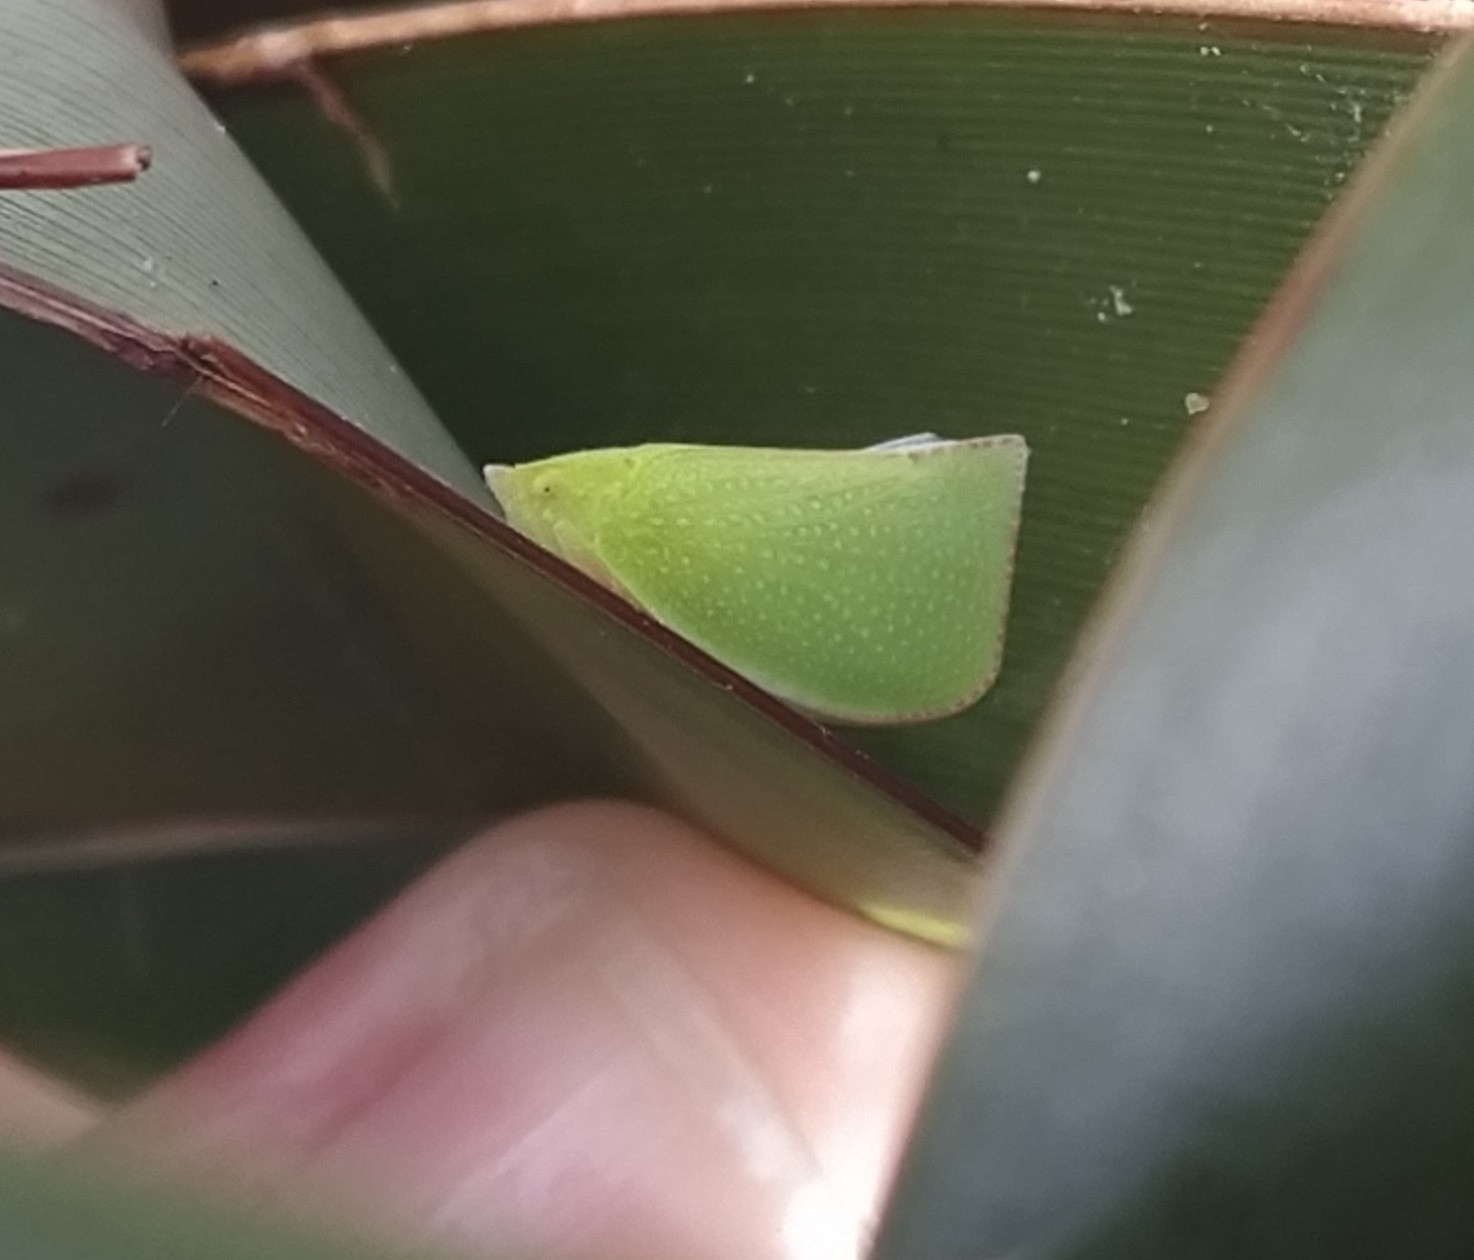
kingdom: Animalia
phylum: Arthropoda
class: Insecta
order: Hemiptera
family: Flatidae
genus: Siphanta
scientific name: Siphanta acuta
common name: Torpedo bug
